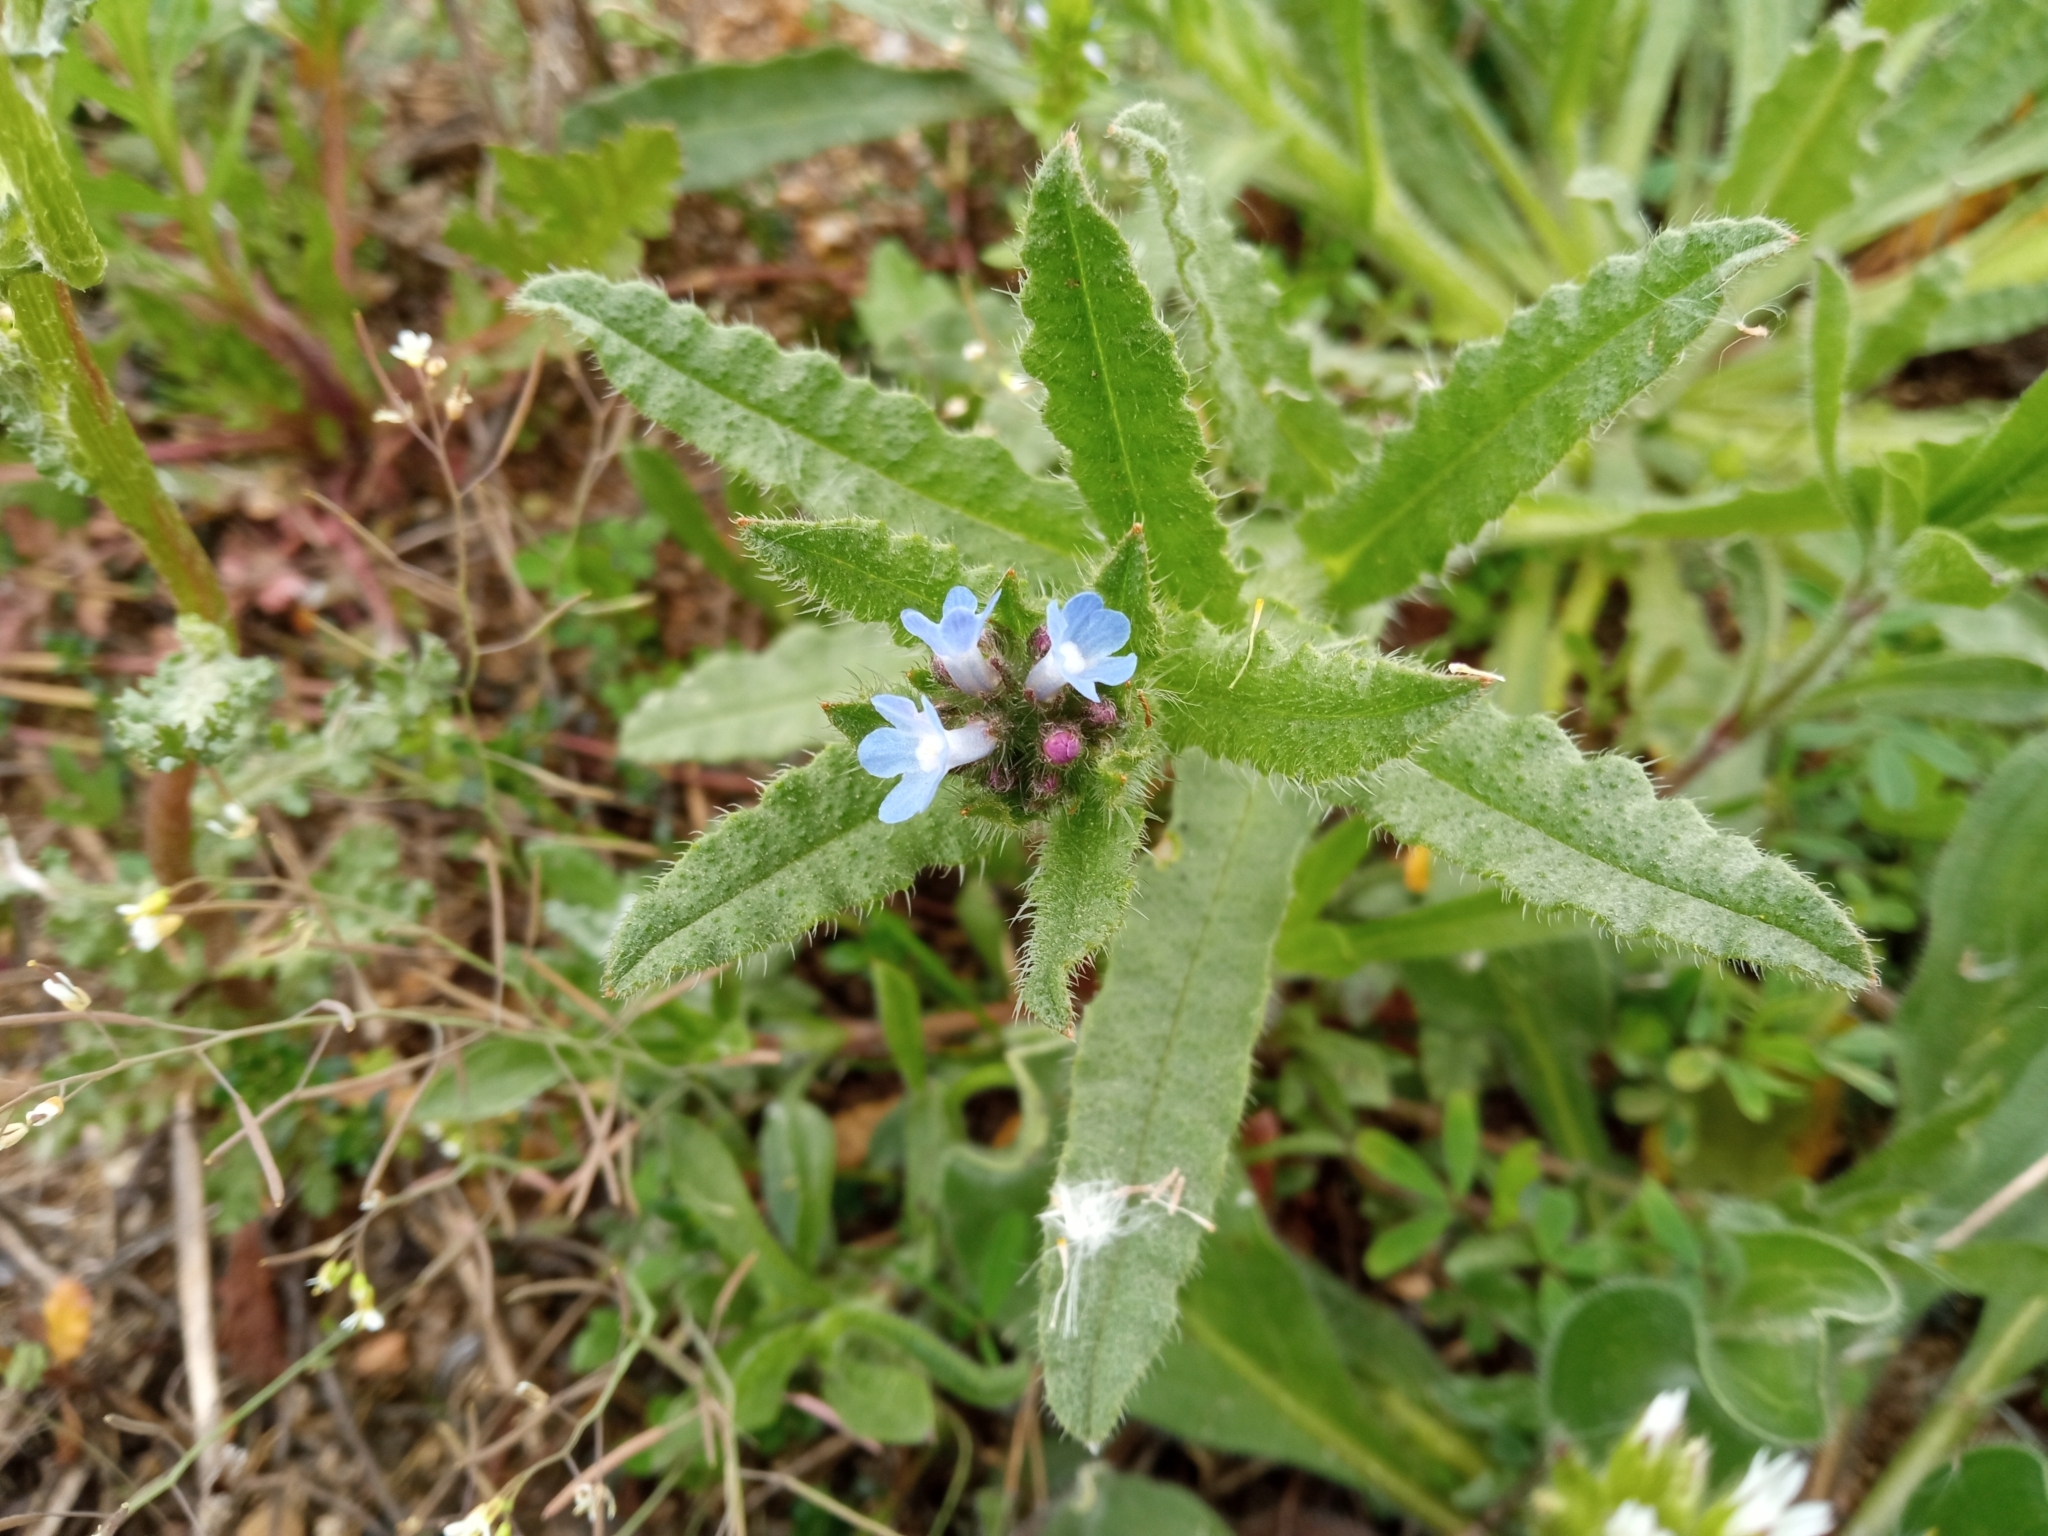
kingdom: Plantae
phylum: Tracheophyta
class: Magnoliopsida
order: Boraginales
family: Boraginaceae
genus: Lycopsis
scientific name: Lycopsis arvensis
